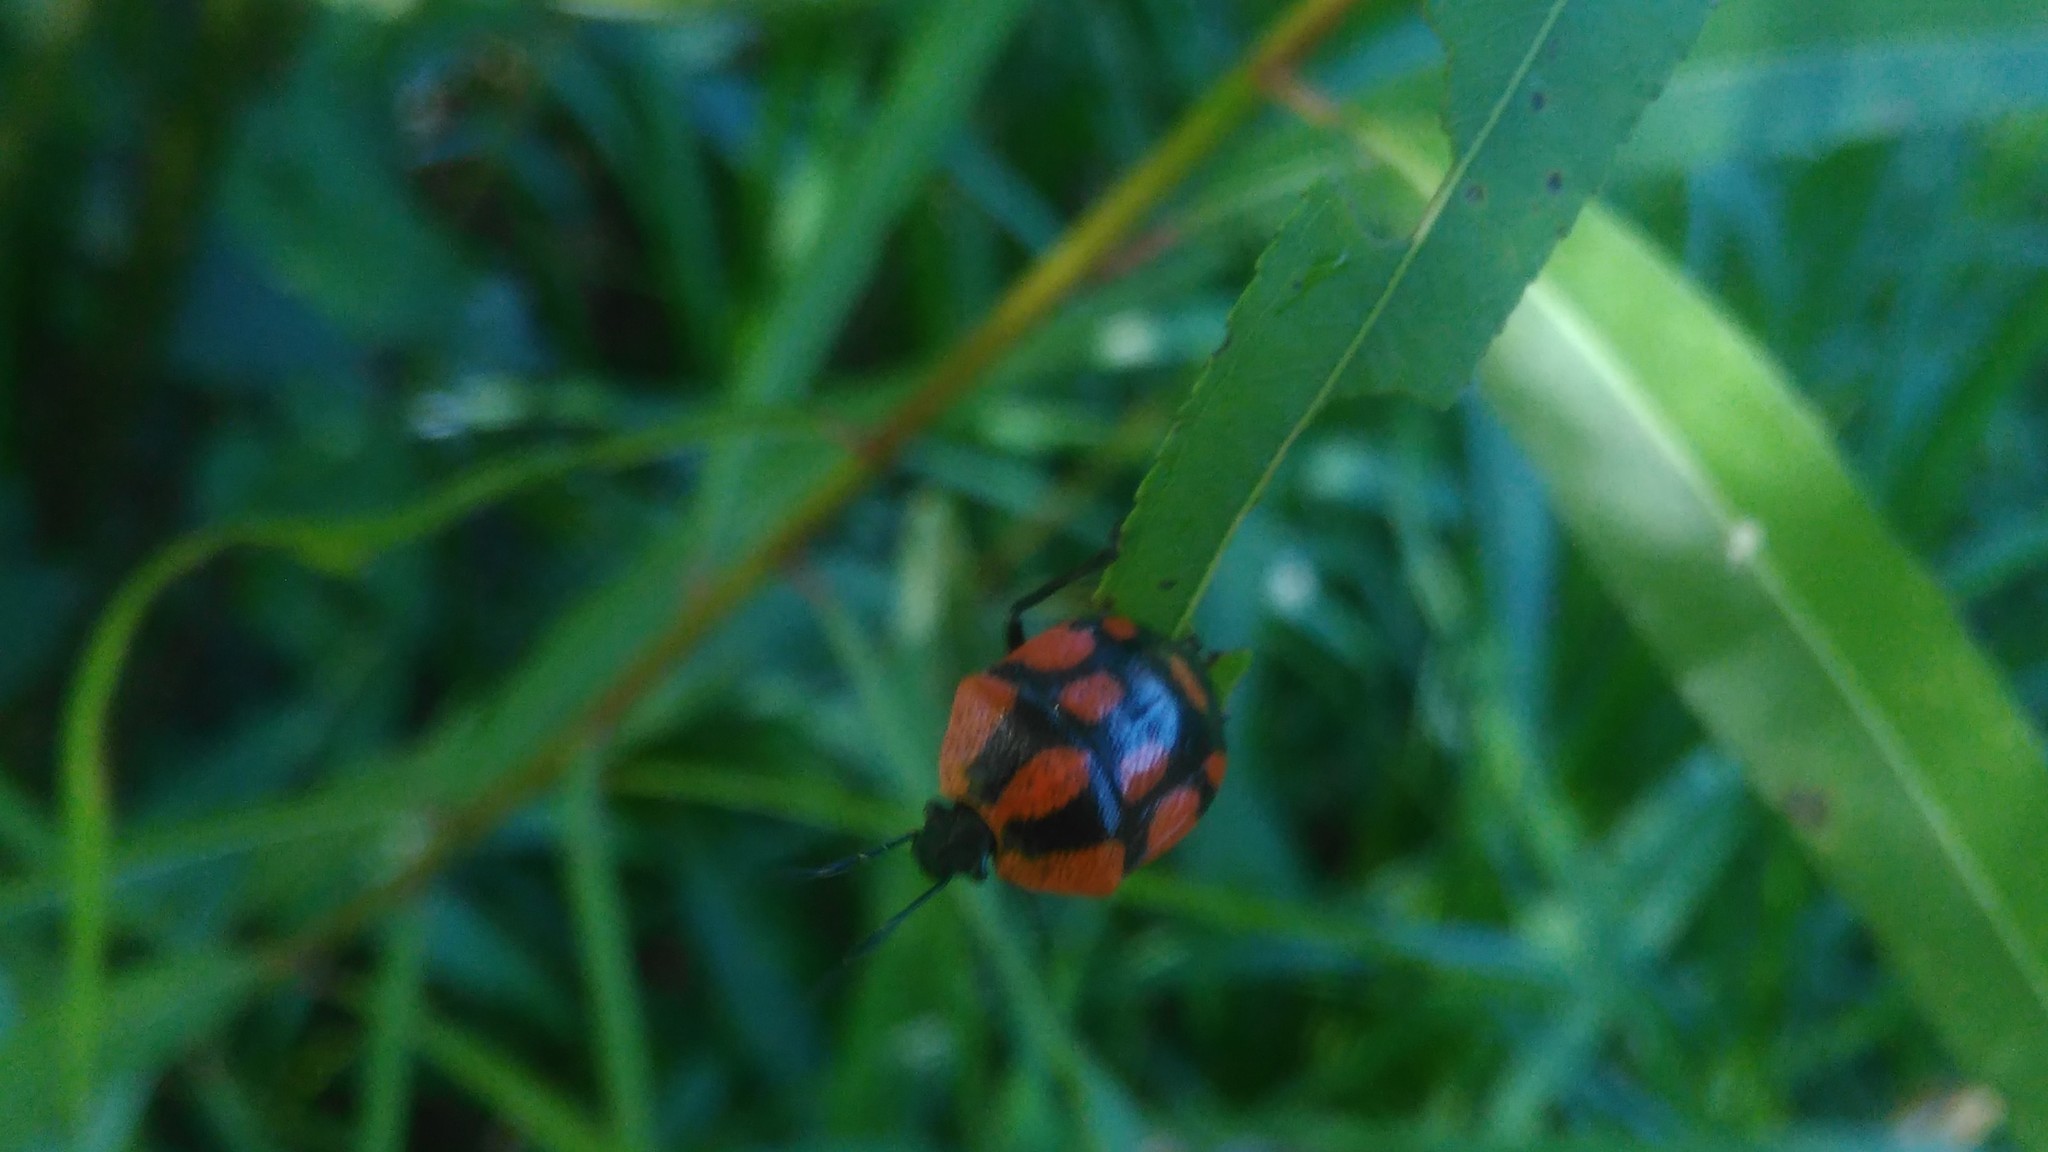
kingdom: Animalia
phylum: Arthropoda
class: Insecta
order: Hemiptera
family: Pentatomidae
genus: Stiretrus
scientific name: Stiretrus
